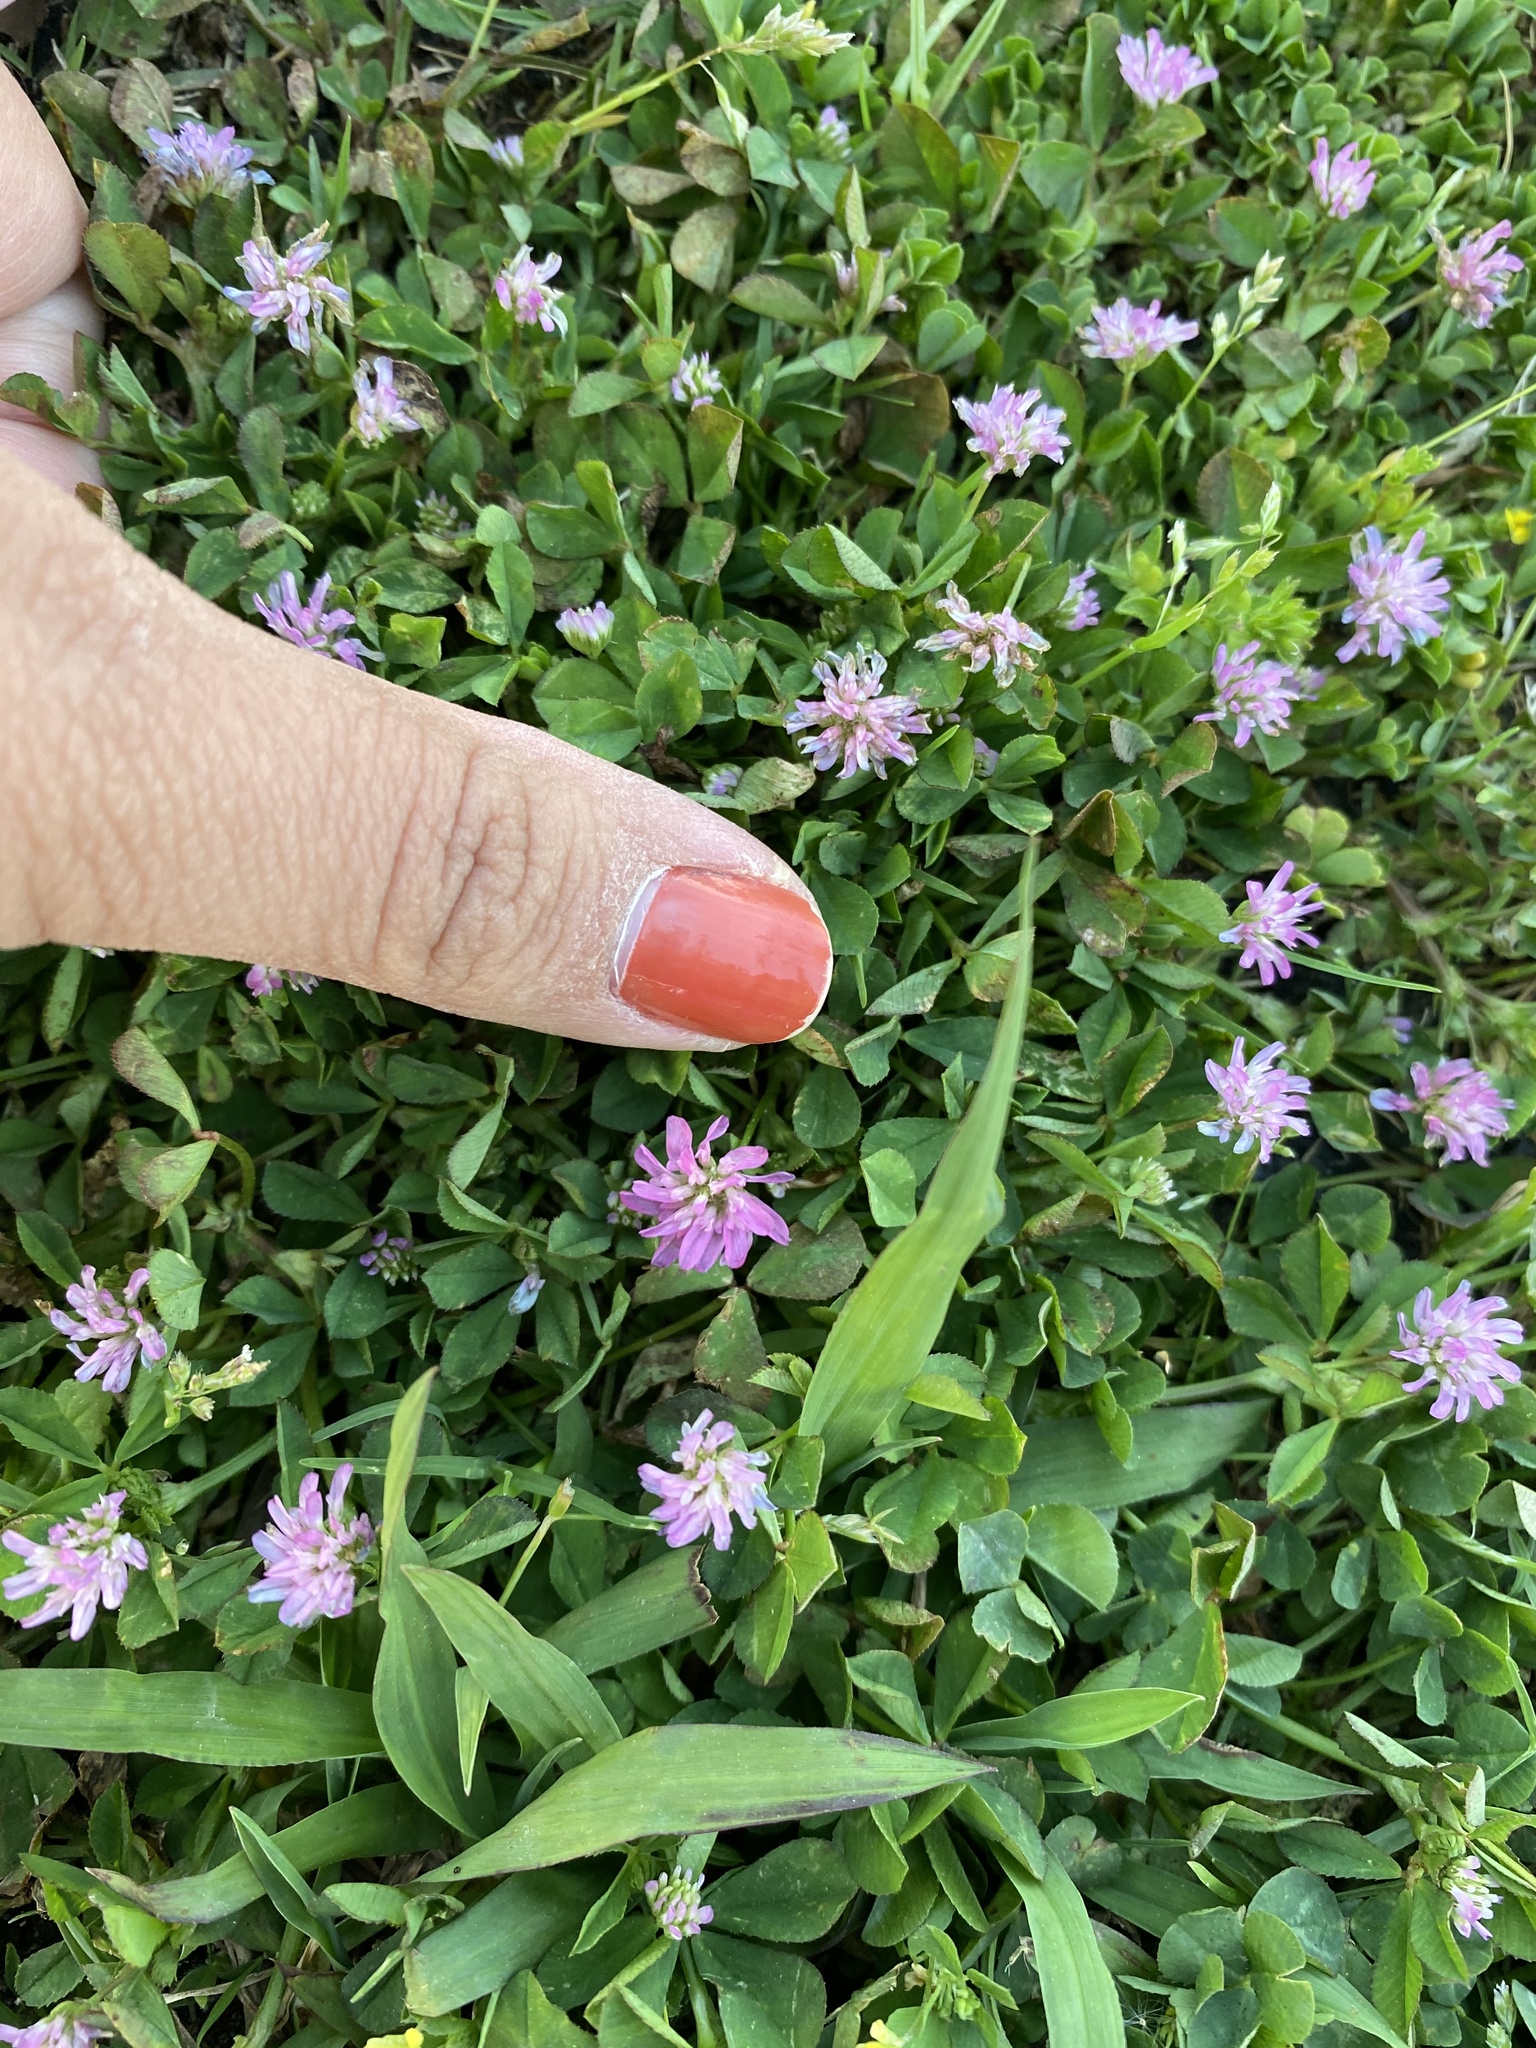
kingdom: Plantae
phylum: Tracheophyta
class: Magnoliopsida
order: Fabales
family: Fabaceae
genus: Trifolium
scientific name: Trifolium resupinatum
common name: Reversed clover
